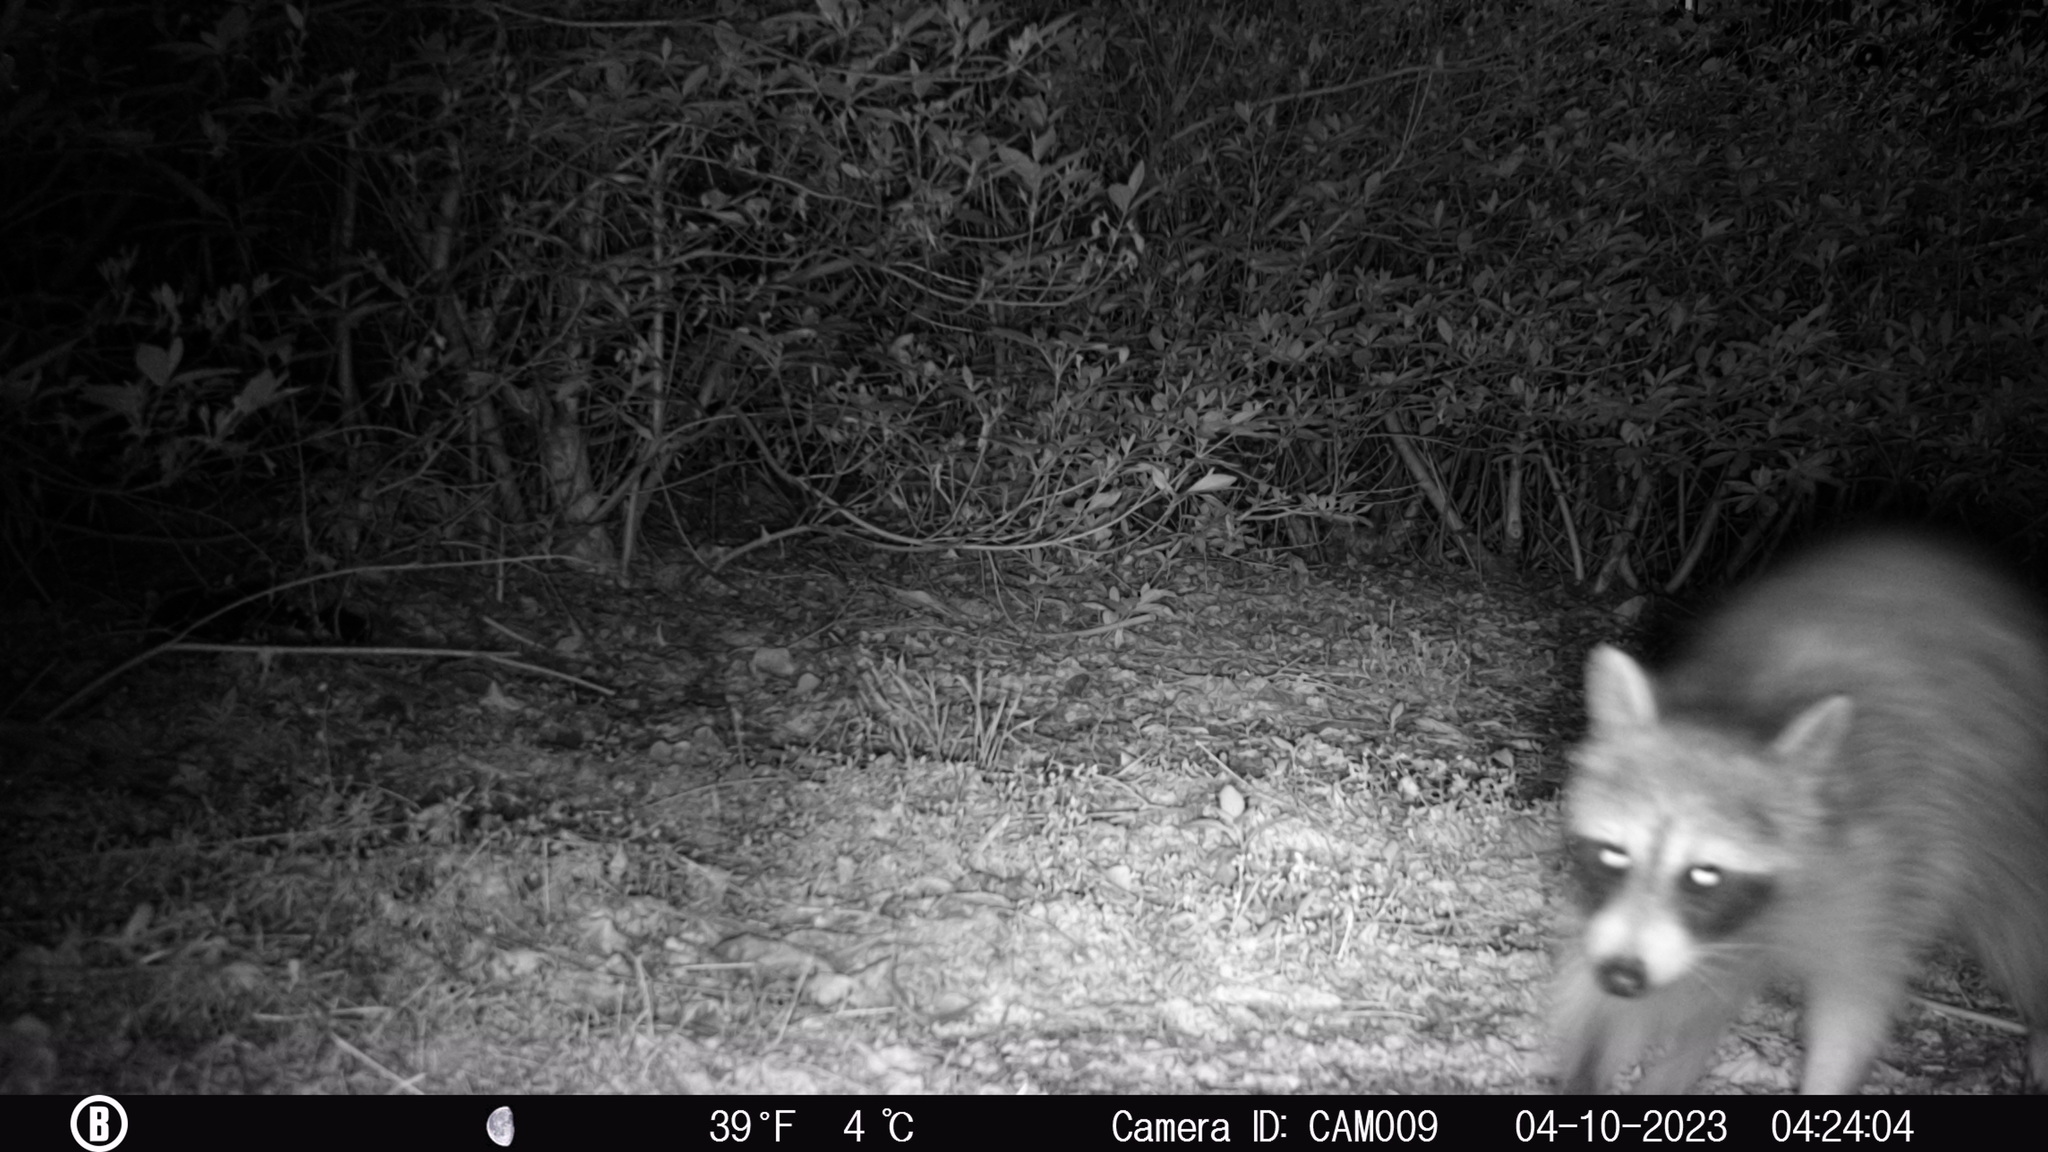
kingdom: Animalia
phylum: Chordata
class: Mammalia
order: Carnivora
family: Procyonidae
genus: Procyon
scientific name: Procyon lotor
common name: Raccoon
